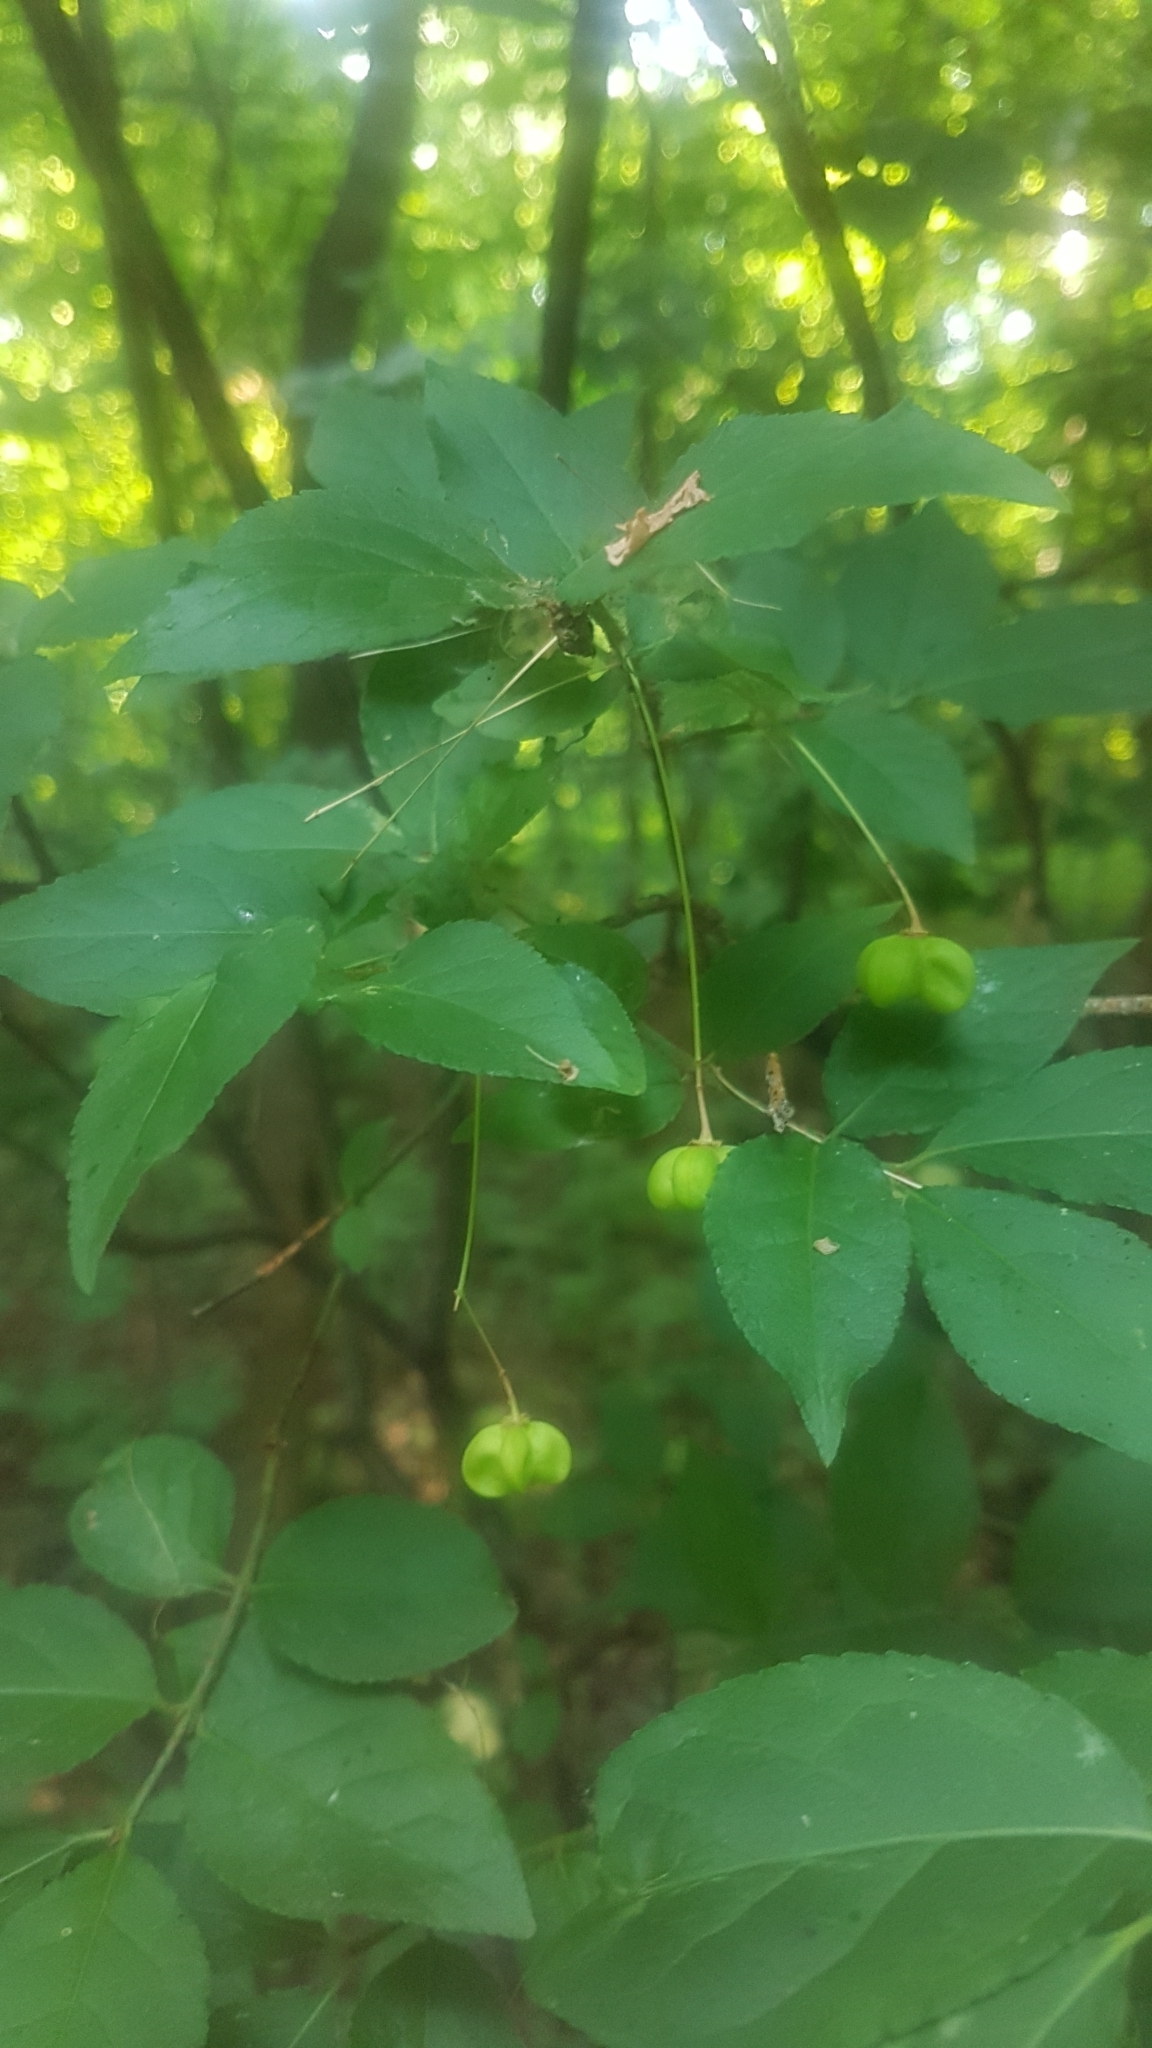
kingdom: Plantae
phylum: Tracheophyta
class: Magnoliopsida
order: Celastrales
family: Celastraceae
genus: Euonymus
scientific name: Euonymus verrucosus
